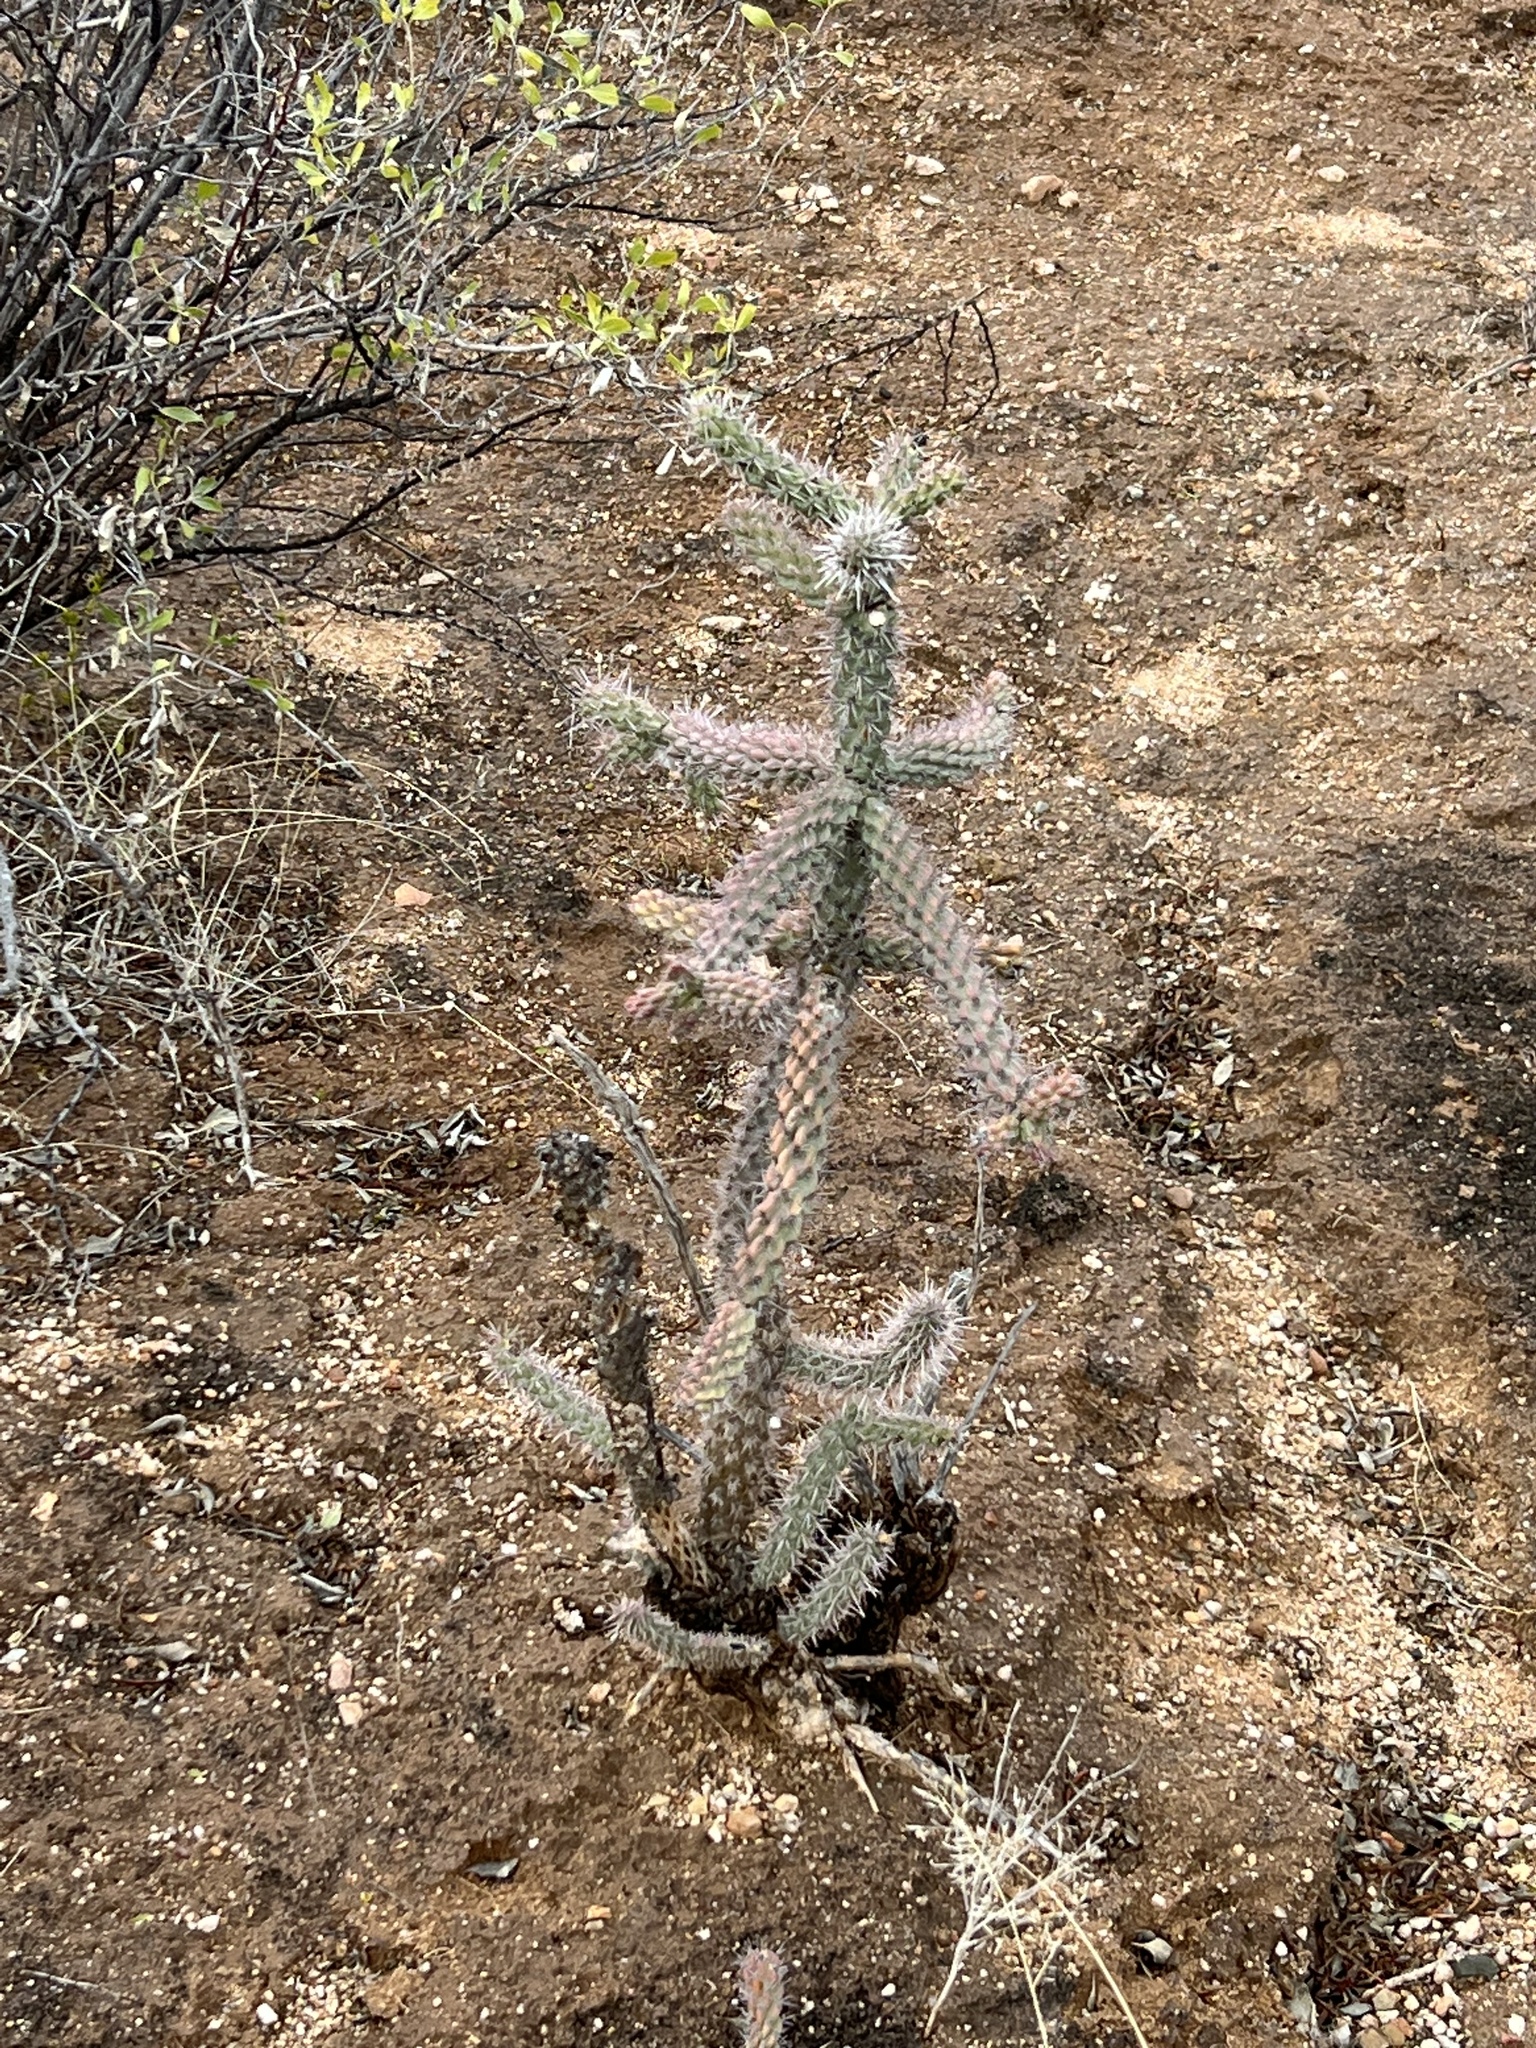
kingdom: Plantae
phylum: Tracheophyta
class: Magnoliopsida
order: Caryophyllales
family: Cactaceae
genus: Cylindropuntia
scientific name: Cylindropuntia imbricata
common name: Candelabrum cactus
